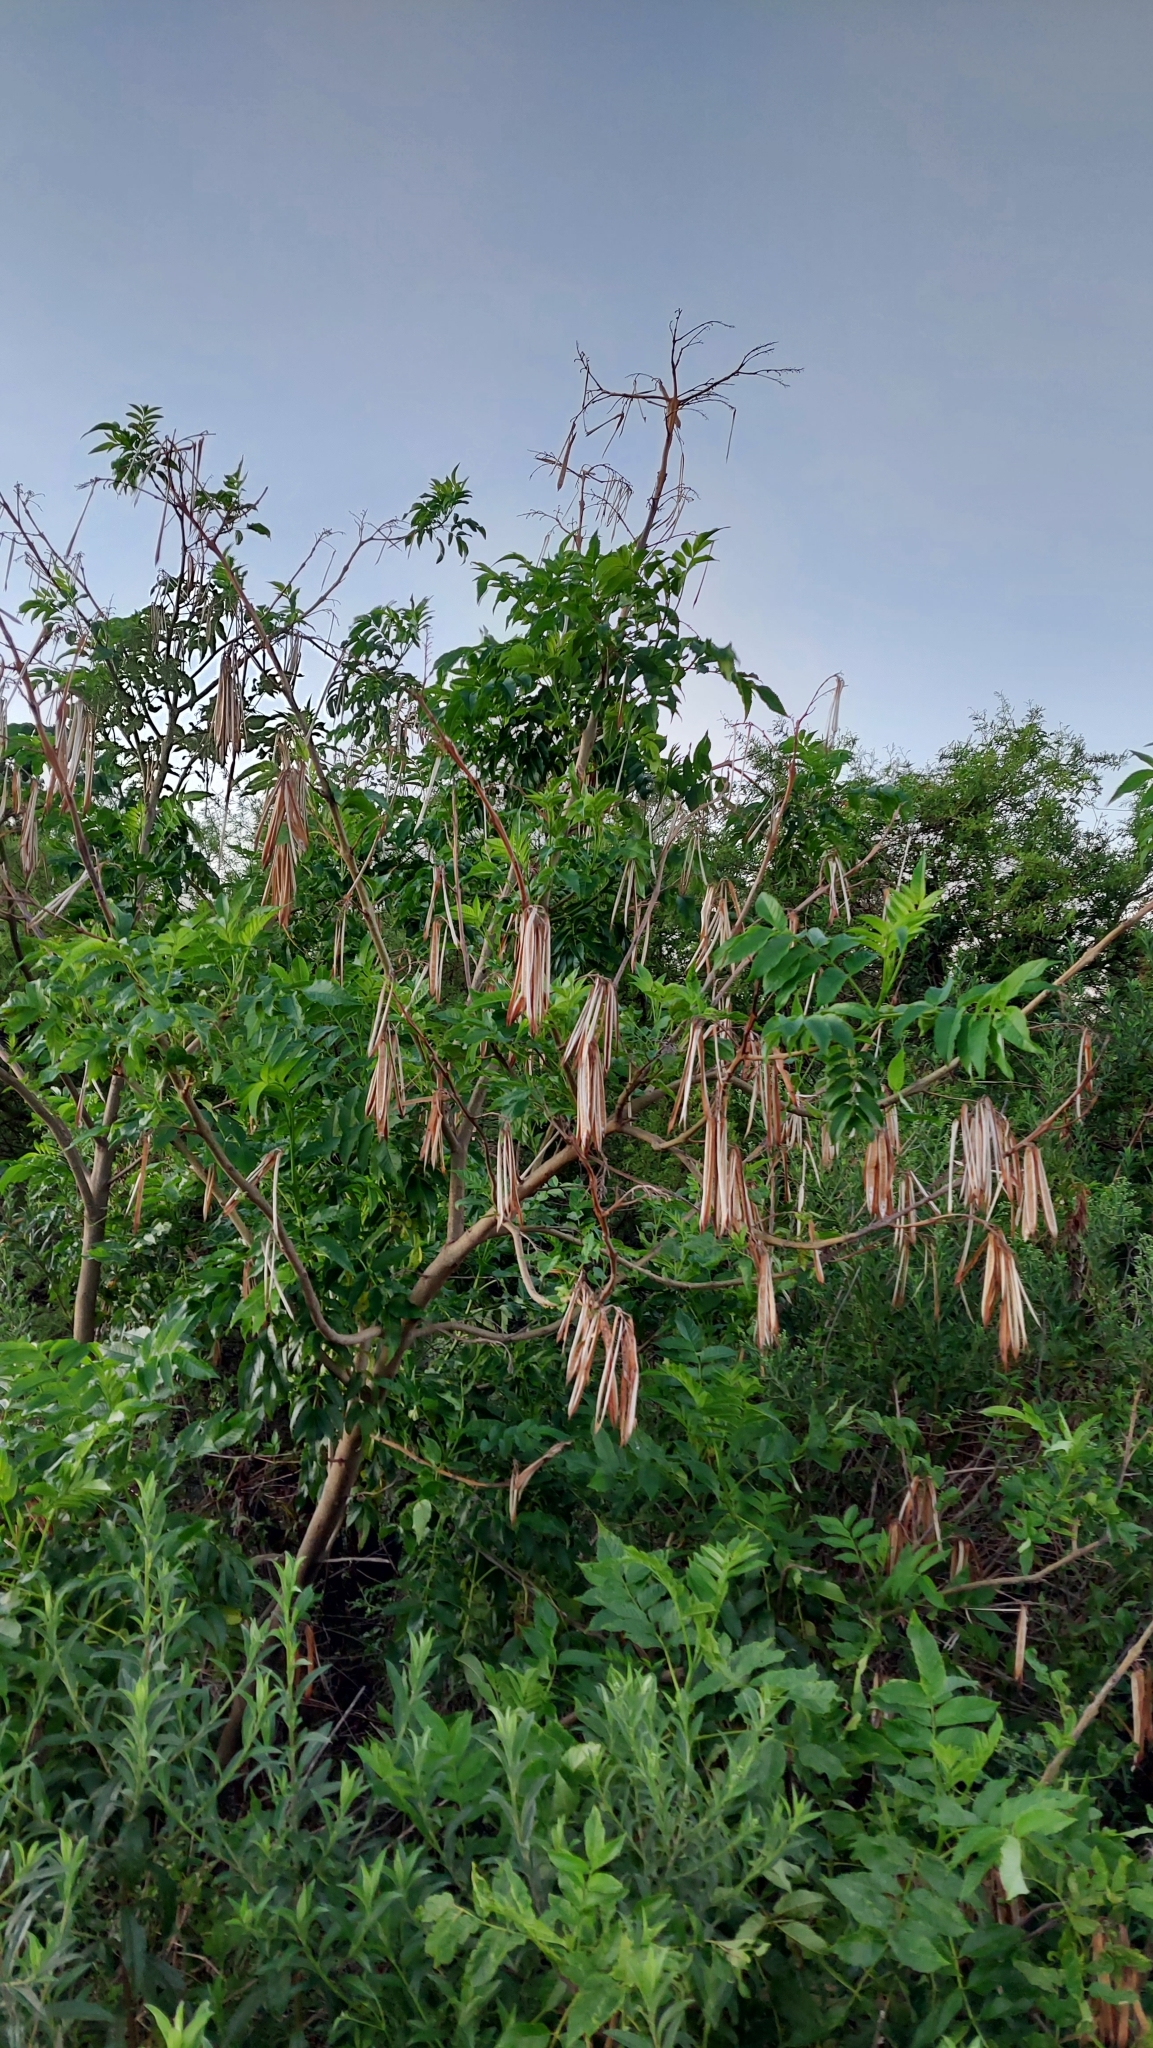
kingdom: Plantae
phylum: Tracheophyta
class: Magnoliopsida
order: Lamiales
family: Bignoniaceae
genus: Tecoma
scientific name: Tecoma stans
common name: Yellow trumpetbush
